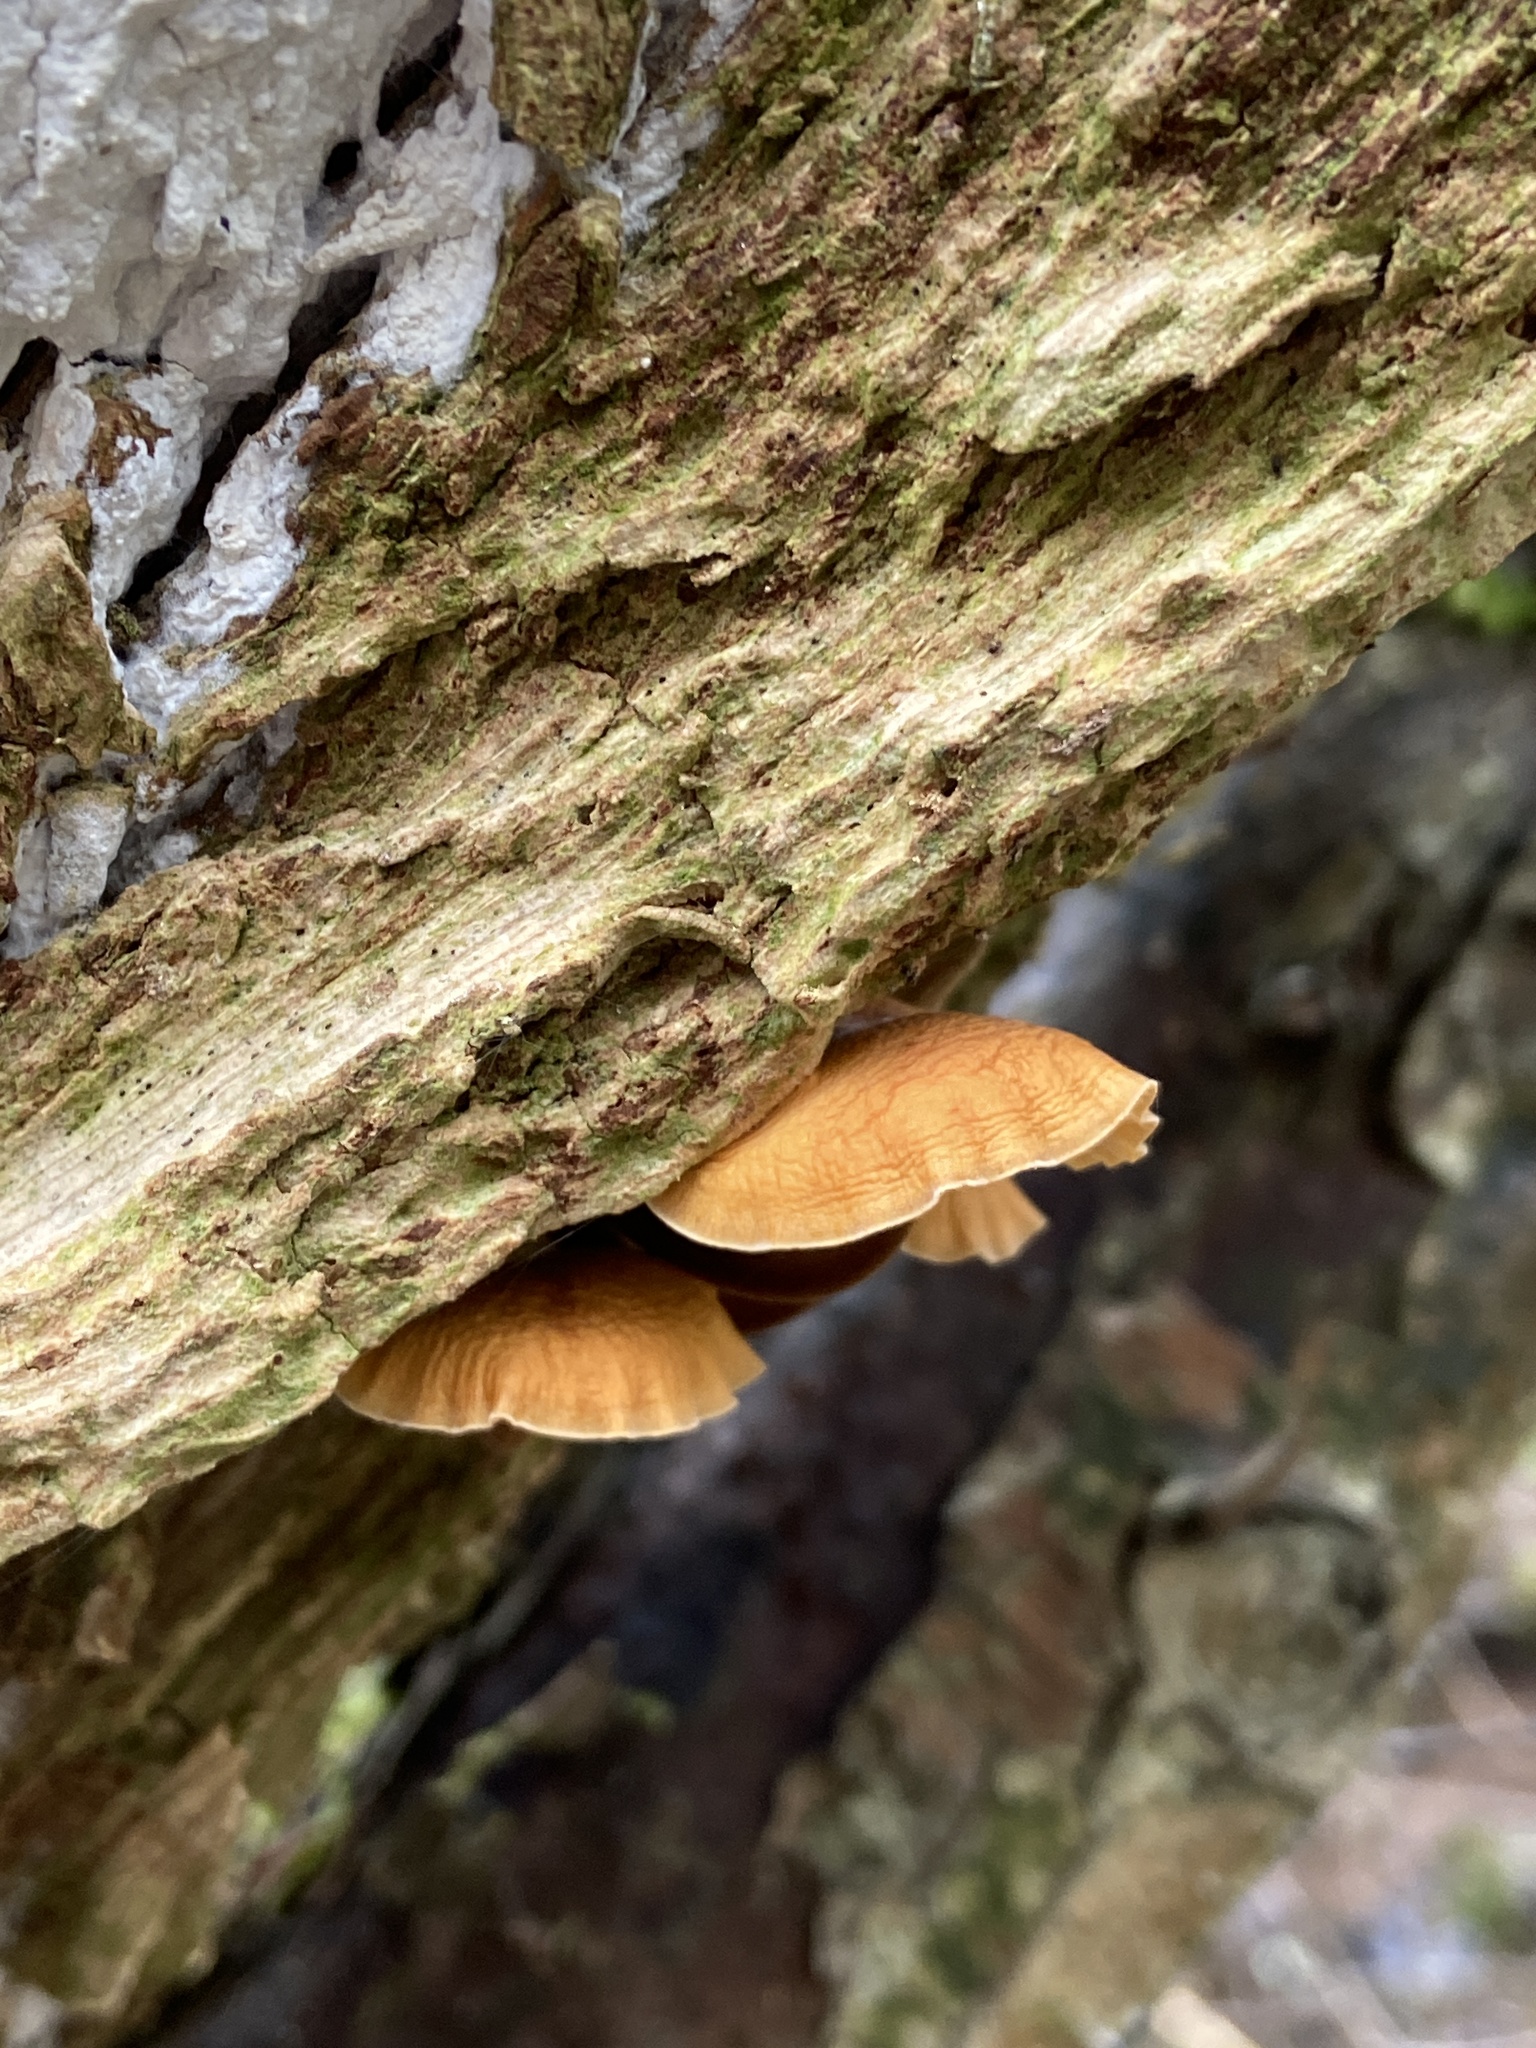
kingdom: Fungi
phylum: Basidiomycota
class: Agaricomycetes
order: Agaricales
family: Physalacriaceae
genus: Flammulina
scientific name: Flammulina
